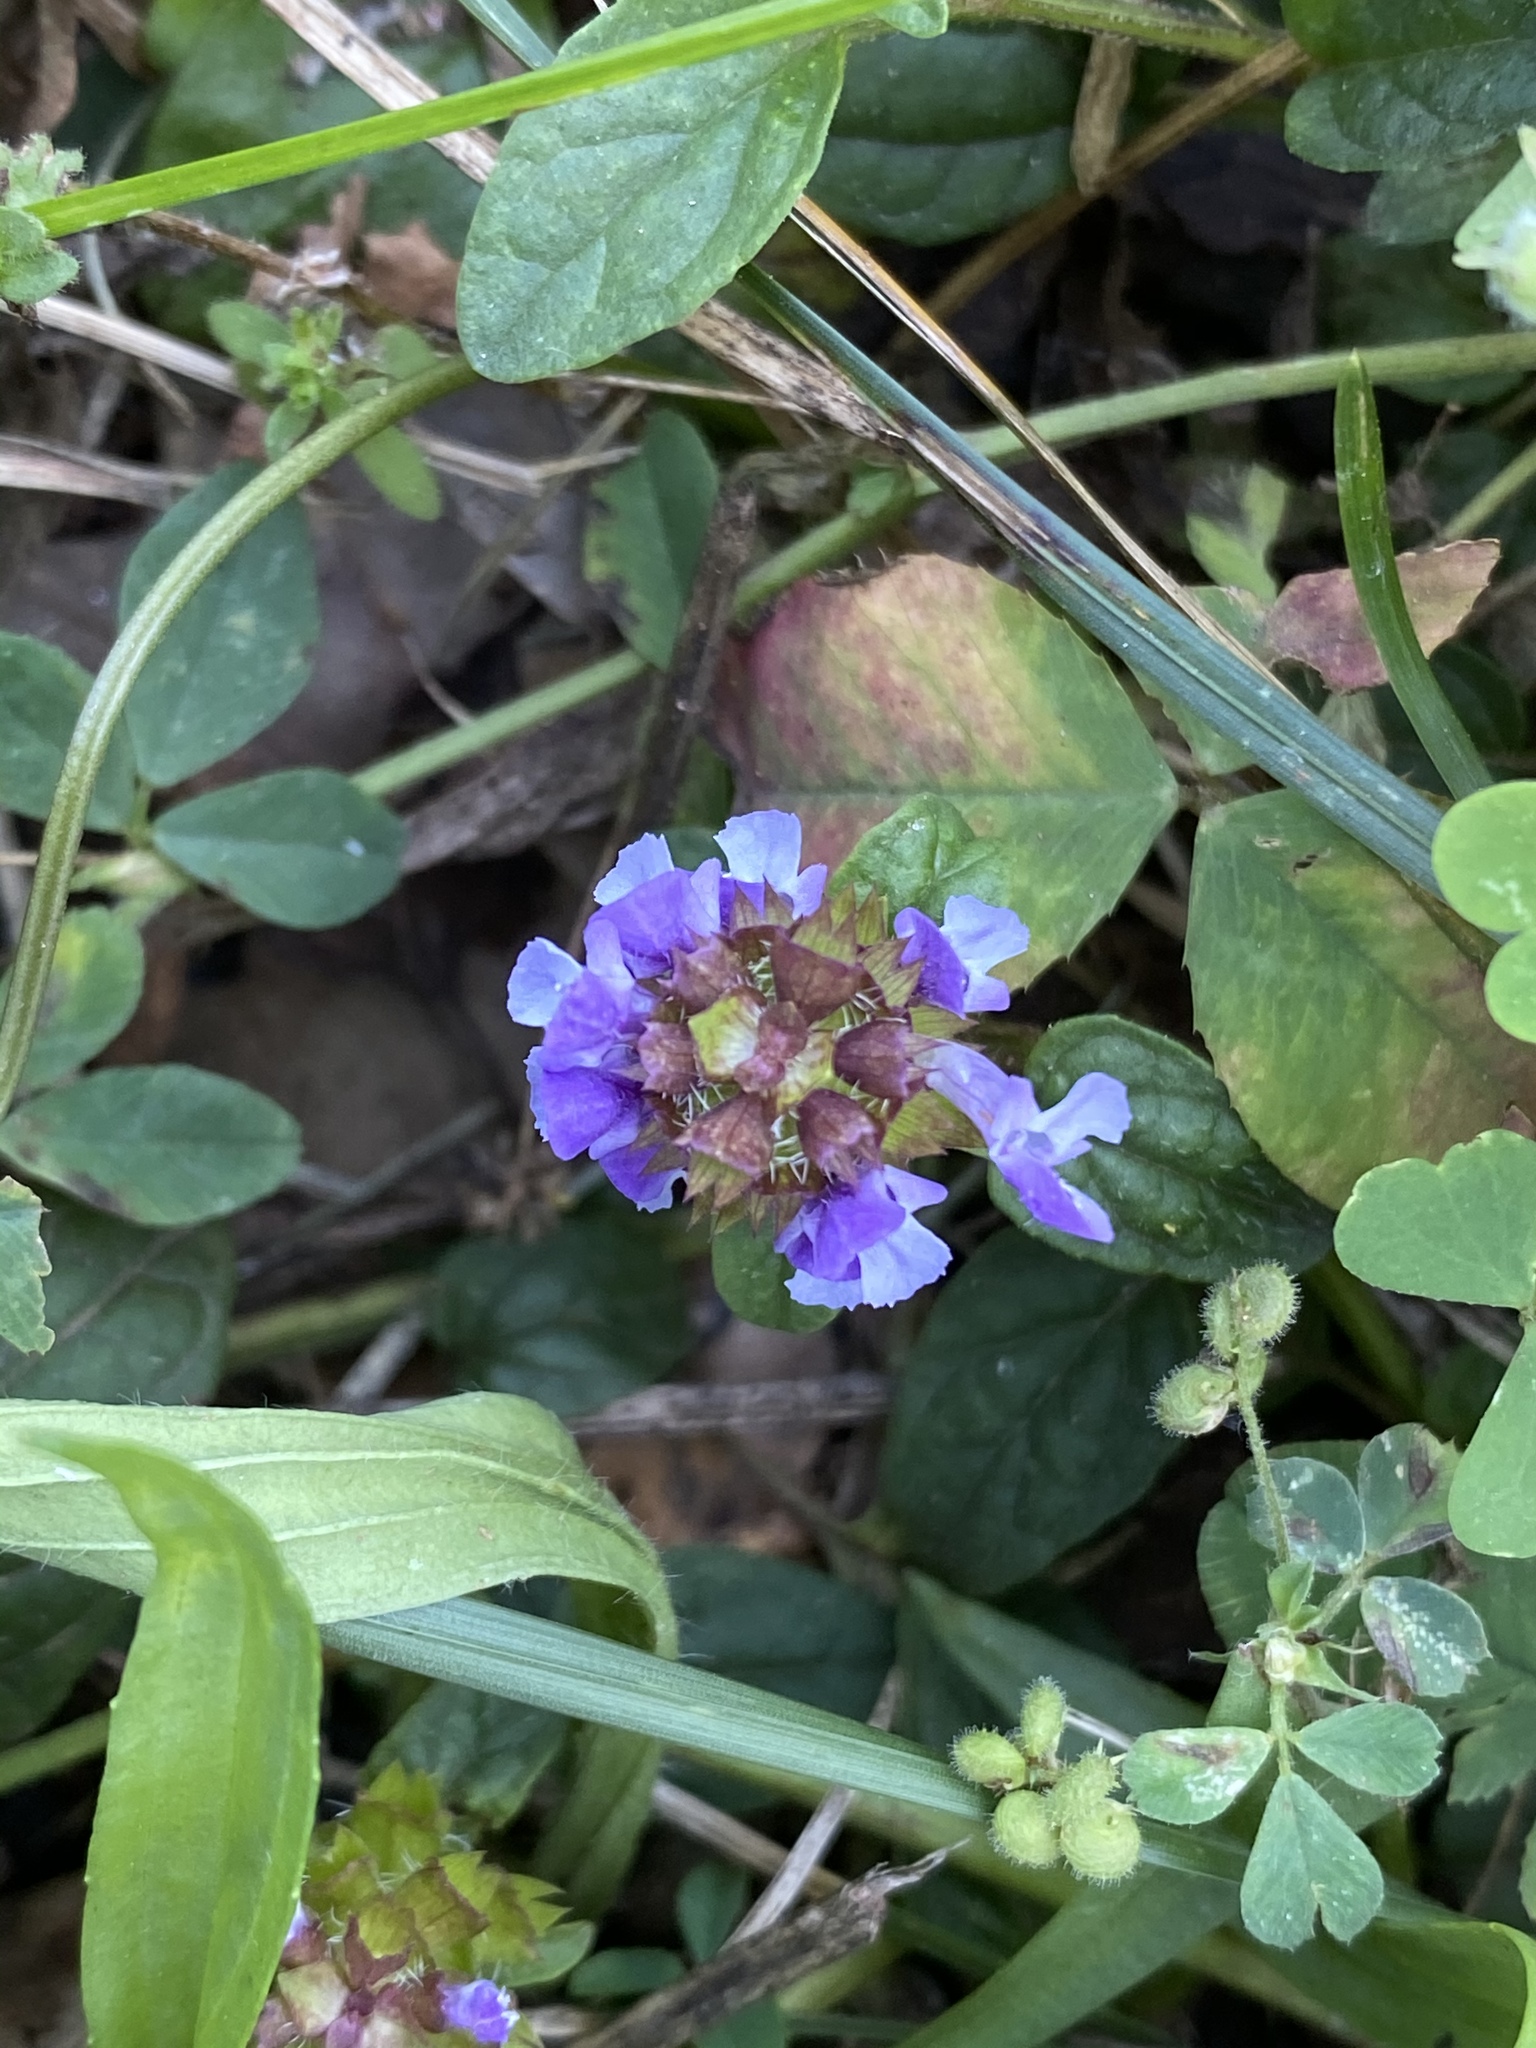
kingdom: Plantae
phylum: Tracheophyta
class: Magnoliopsida
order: Lamiales
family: Lamiaceae
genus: Prunella
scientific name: Prunella vulgaris
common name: Heal-all
